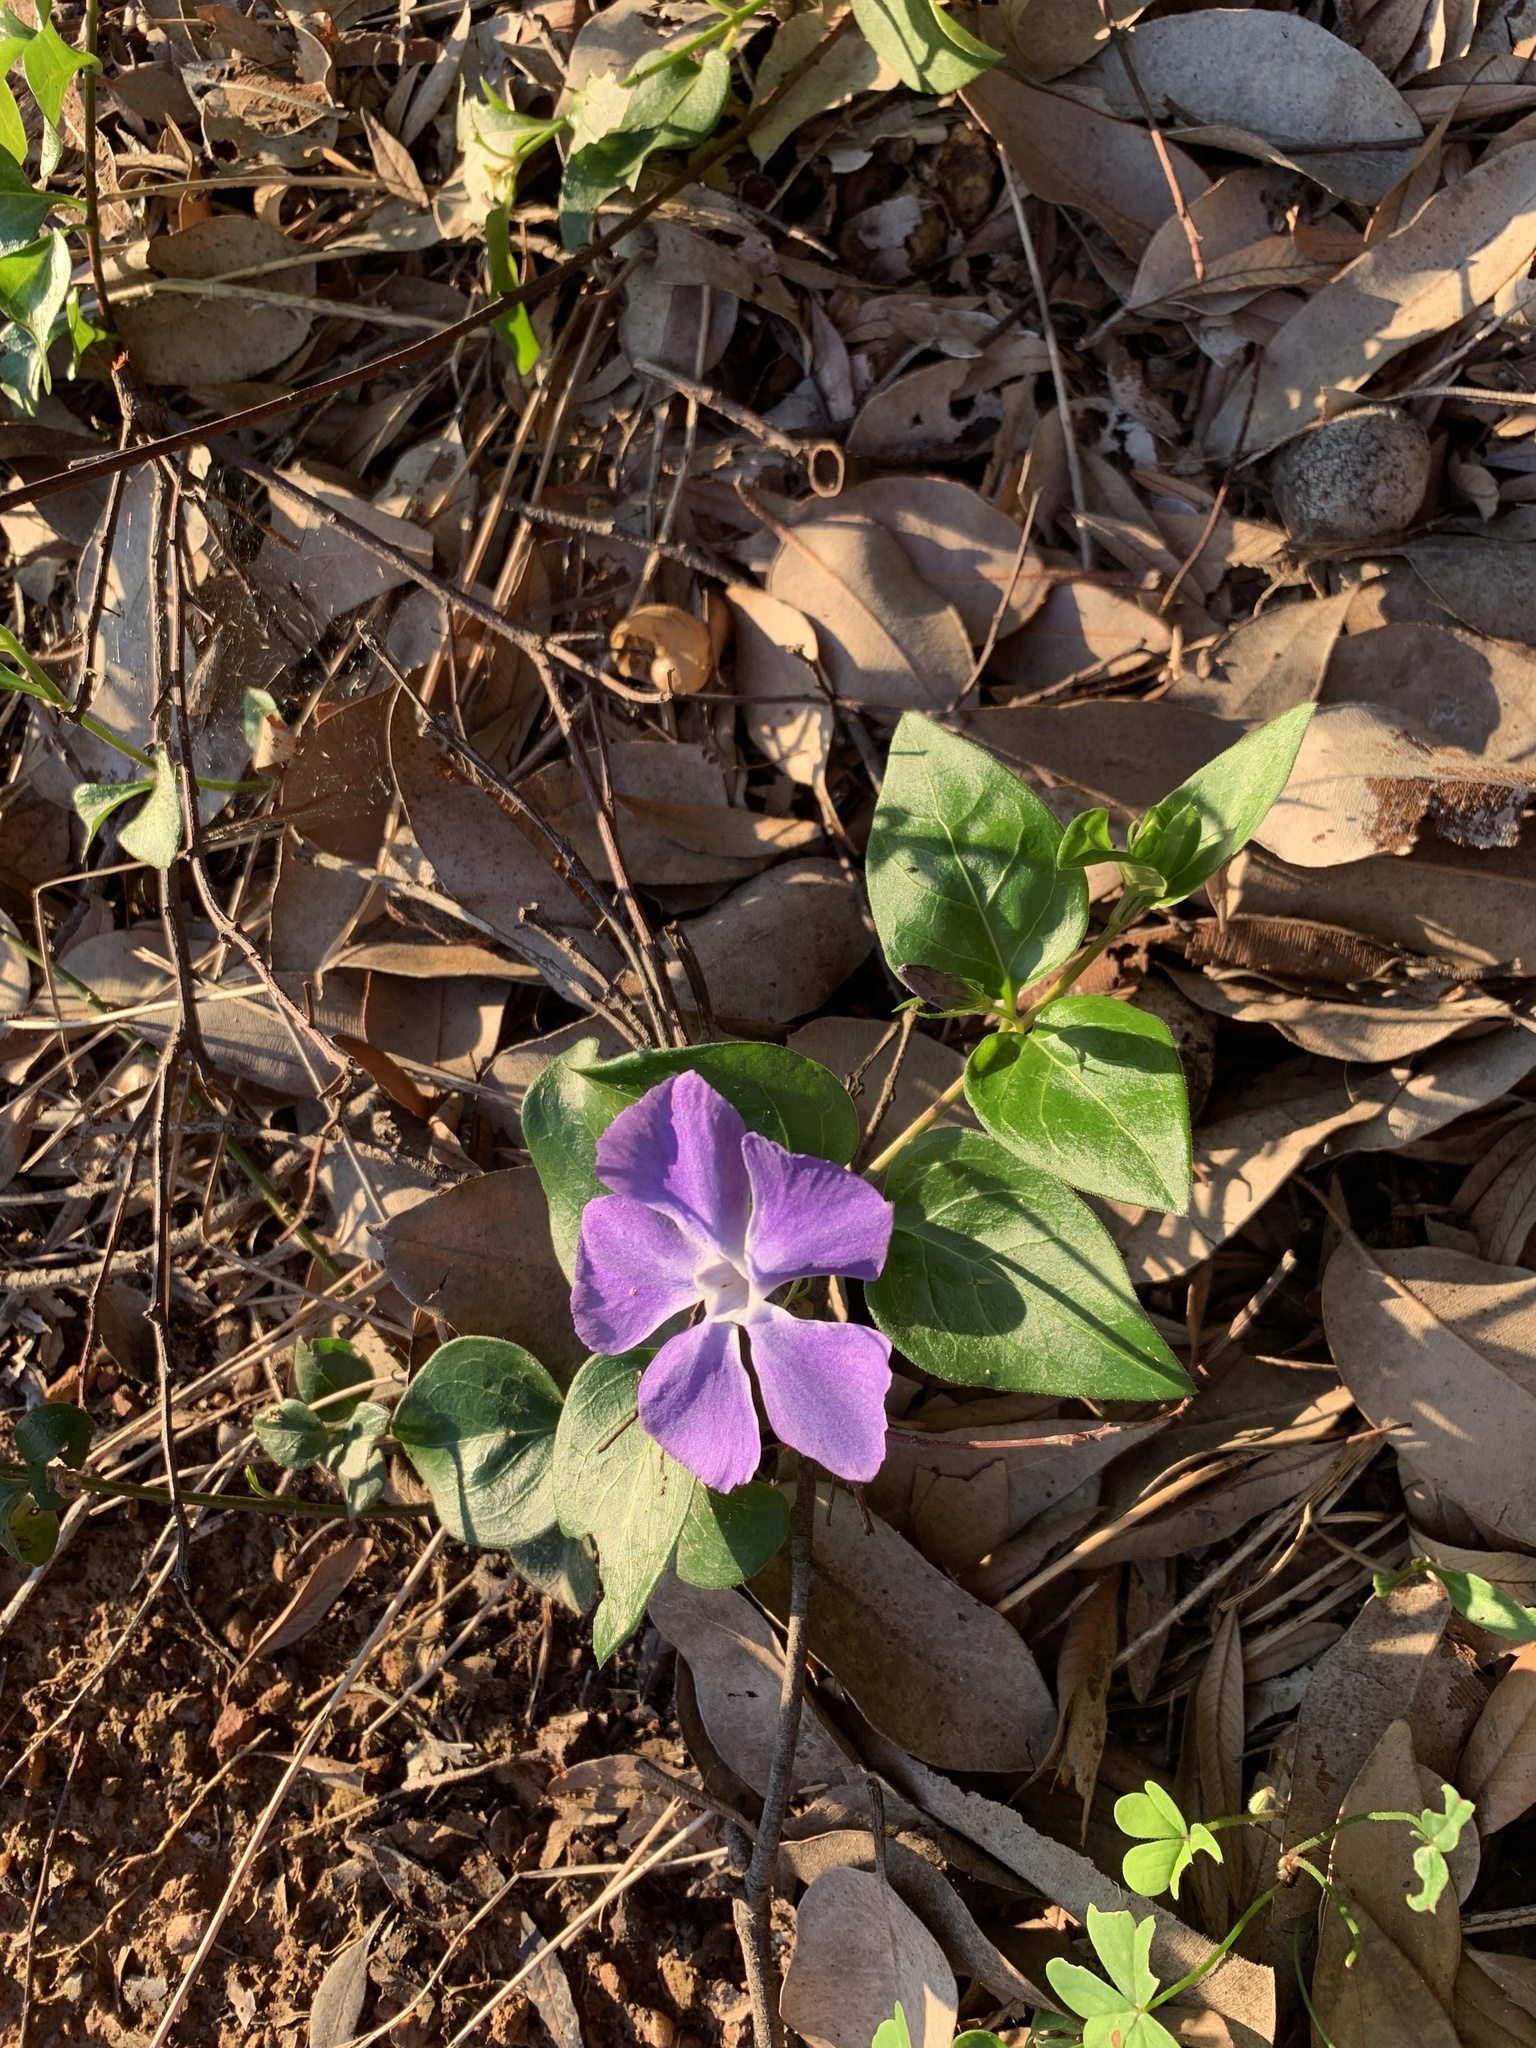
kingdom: Plantae
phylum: Tracheophyta
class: Magnoliopsida
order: Gentianales
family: Apocynaceae
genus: Vinca
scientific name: Vinca major
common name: Greater periwinkle
